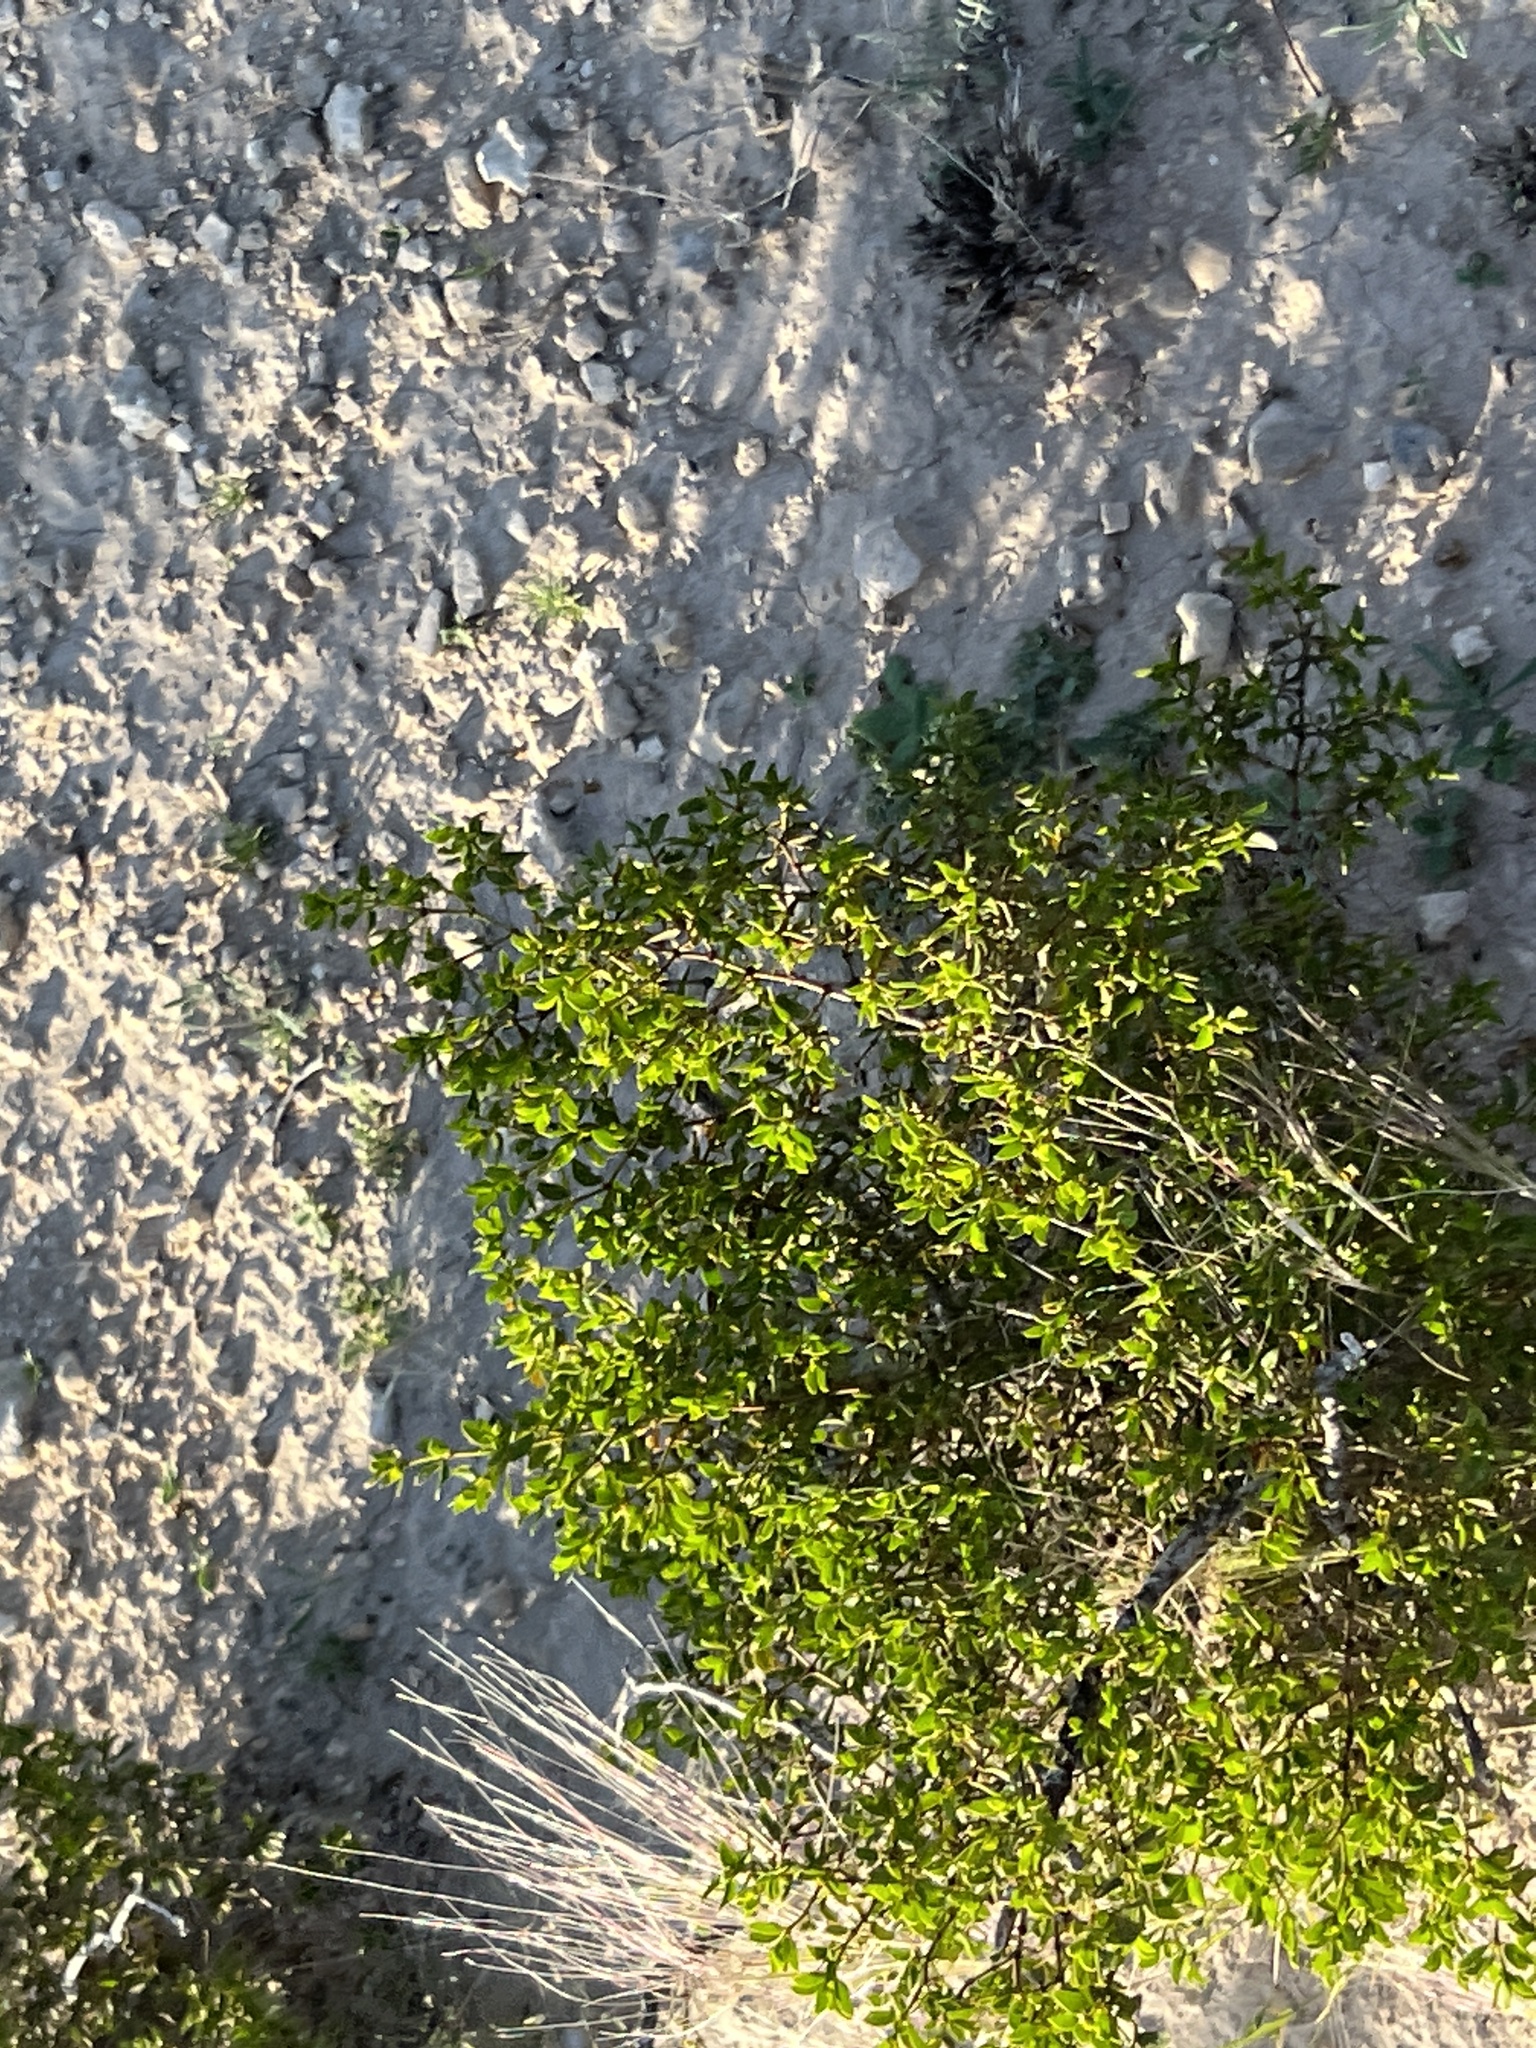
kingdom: Plantae
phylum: Tracheophyta
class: Magnoliopsida
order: Zygophyllales
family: Zygophyllaceae
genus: Larrea
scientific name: Larrea tridentata
